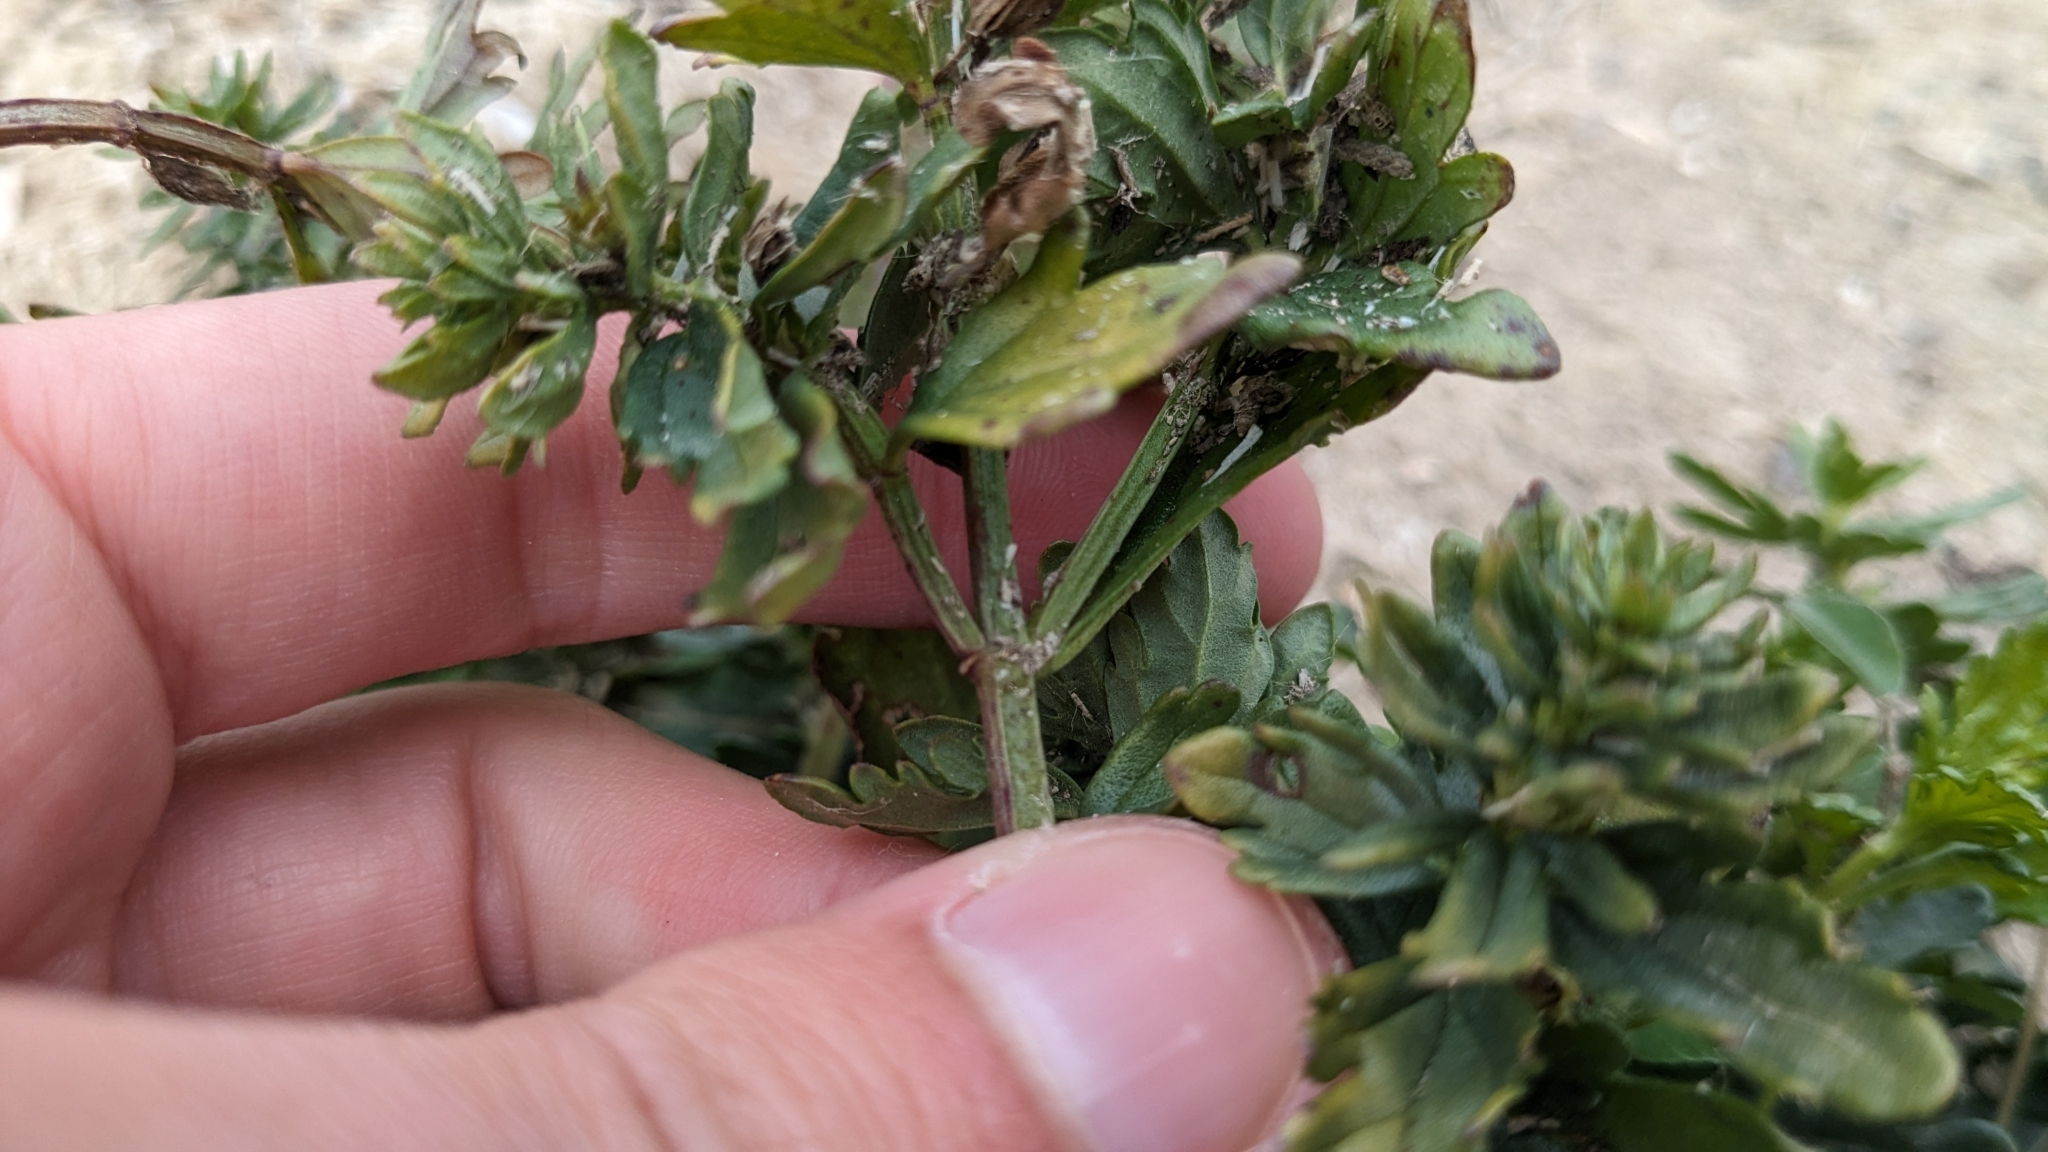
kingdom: Plantae
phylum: Tracheophyta
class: Magnoliopsida
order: Lamiales
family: Lamiaceae
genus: Teucrium
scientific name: Teucrium cubense
